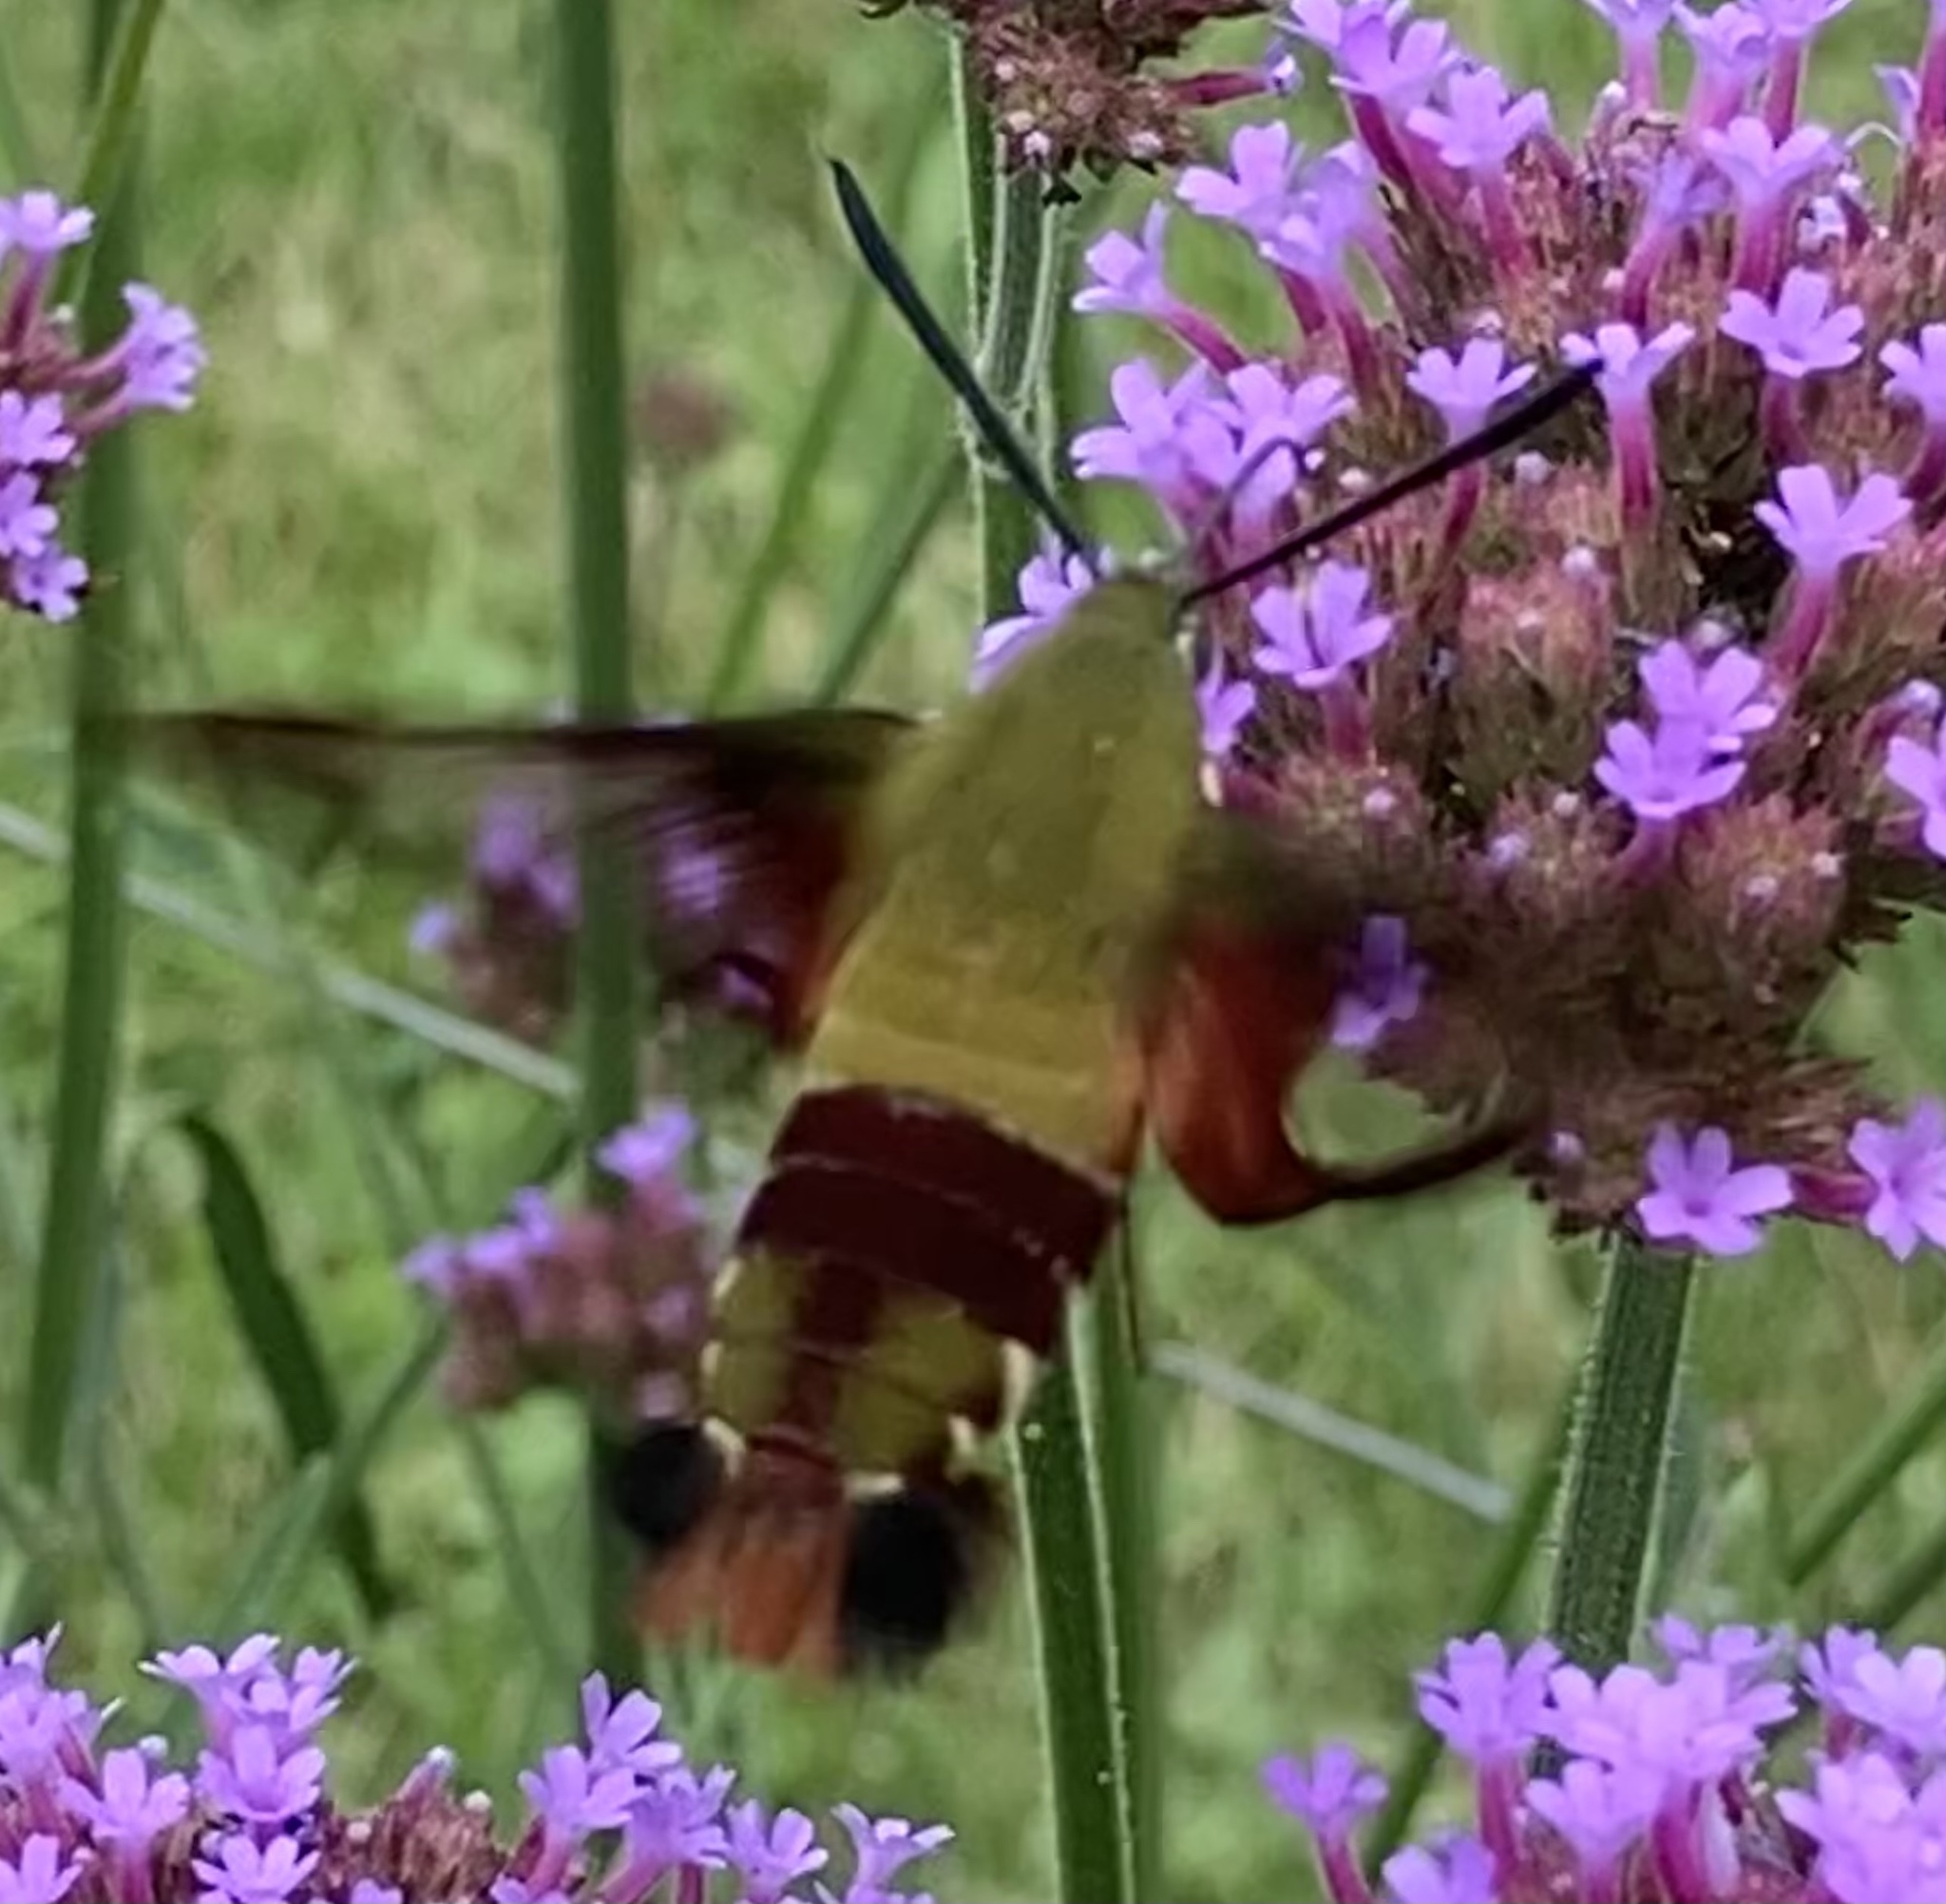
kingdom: Animalia
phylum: Arthropoda
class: Insecta
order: Lepidoptera
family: Sphingidae
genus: Hemaris
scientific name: Hemaris thysbe
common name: Common clear-wing
